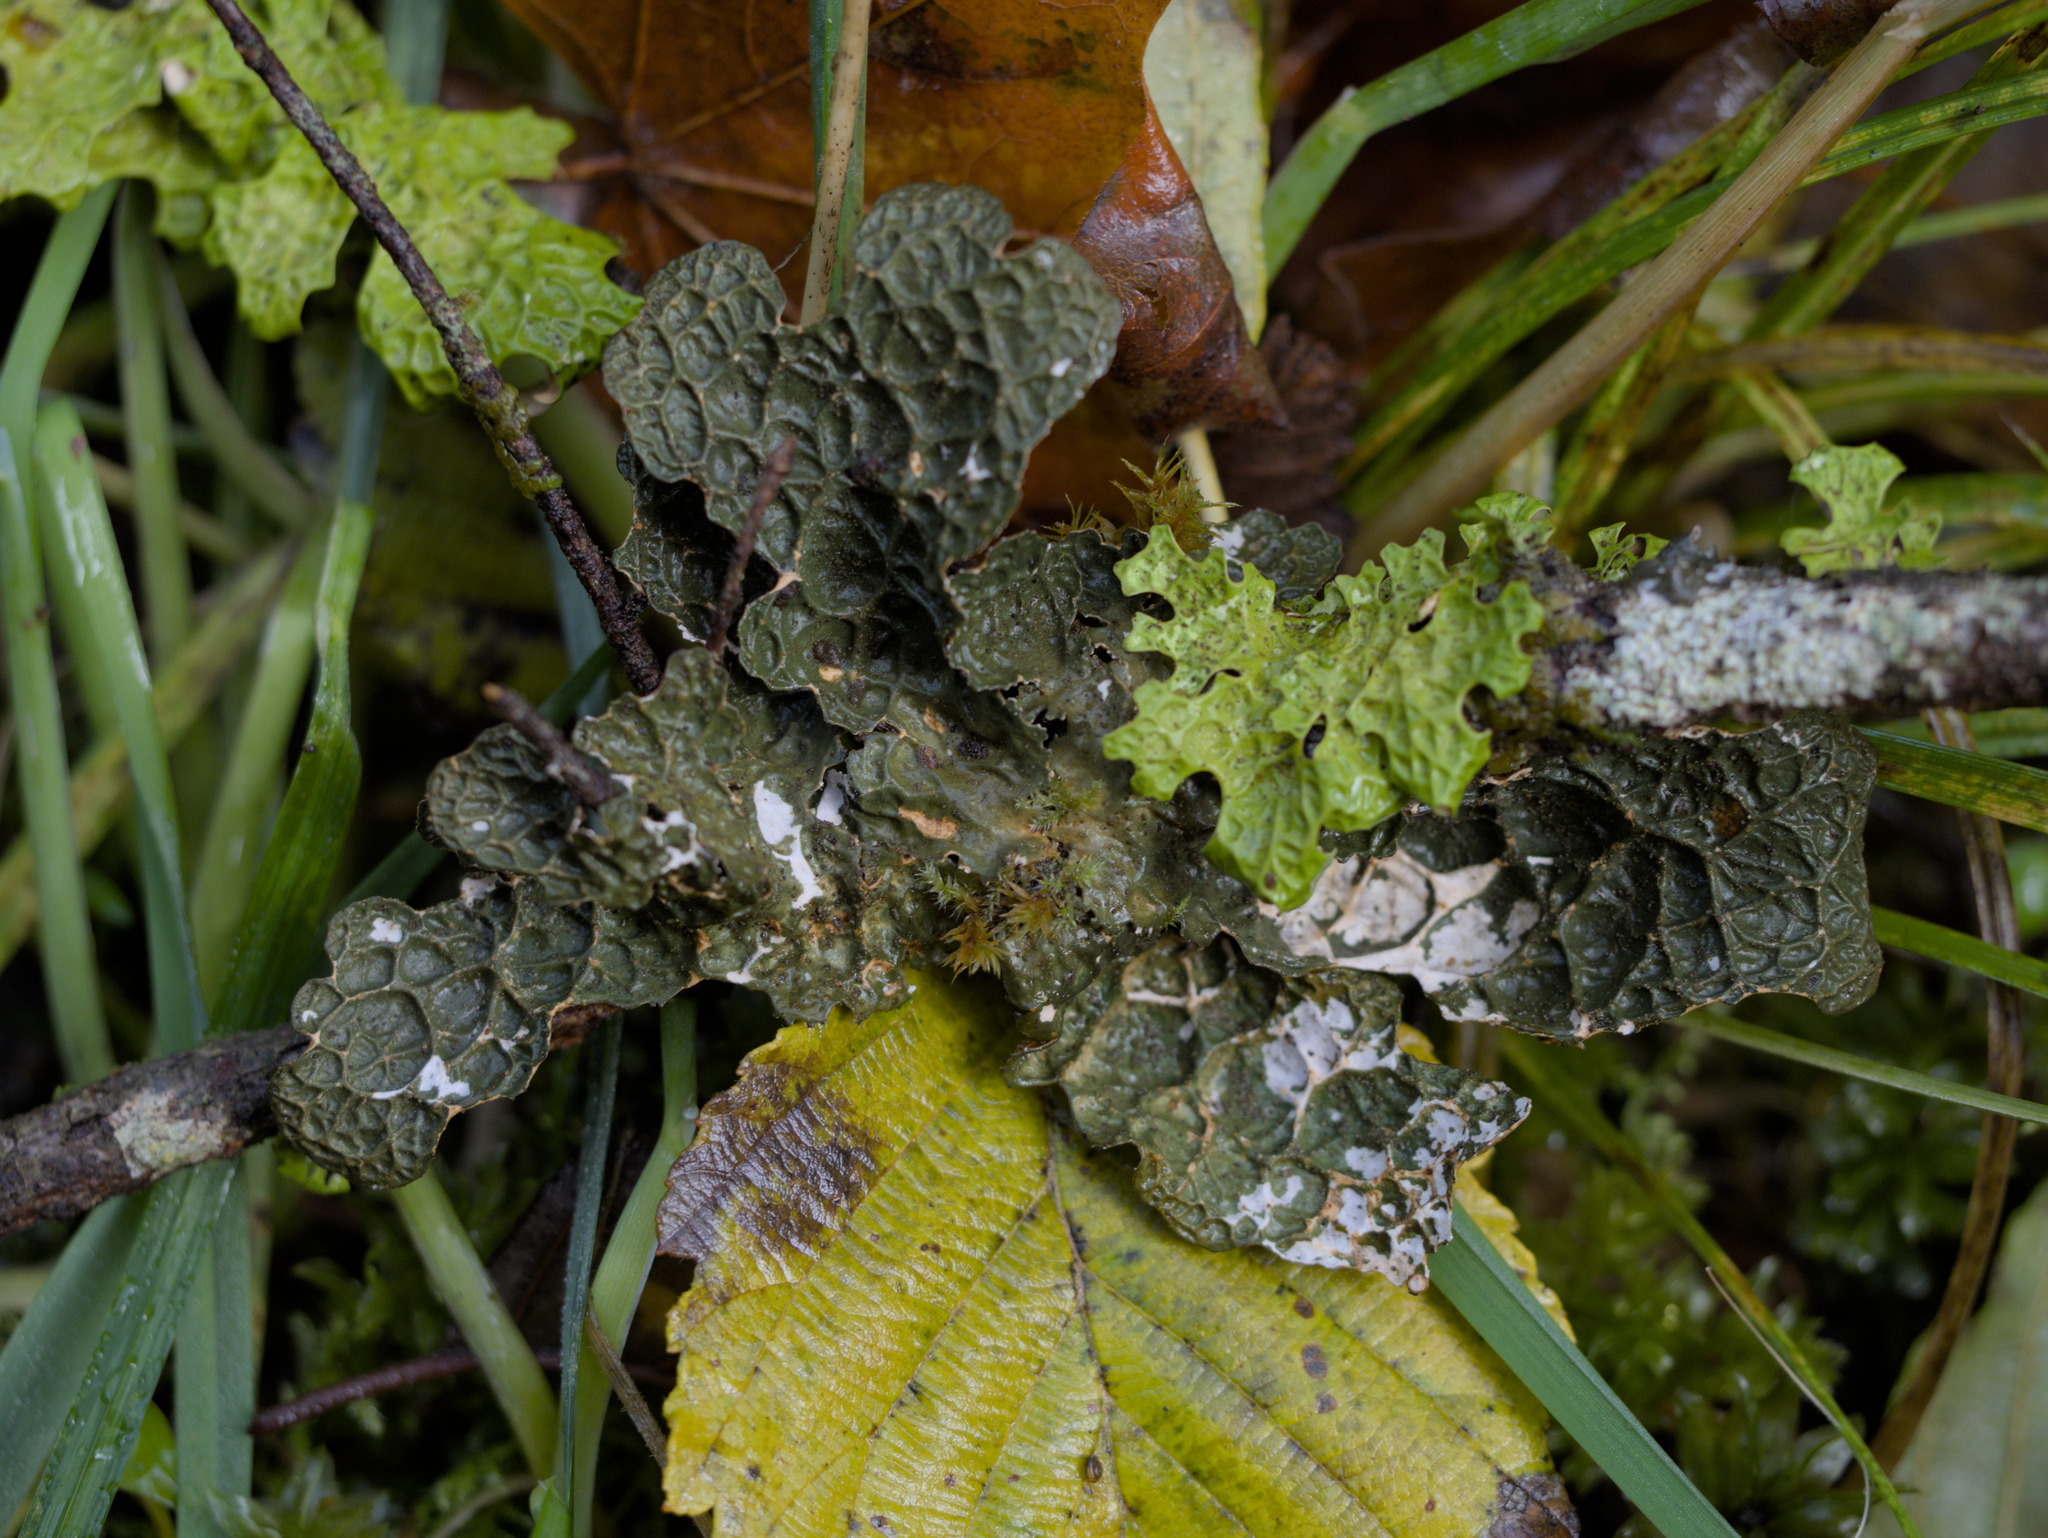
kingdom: Fungi
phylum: Ascomycota
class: Lecanoromycetes
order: Peltigerales
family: Lobariaceae
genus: Lobaria
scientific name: Lobaria anthraspis
